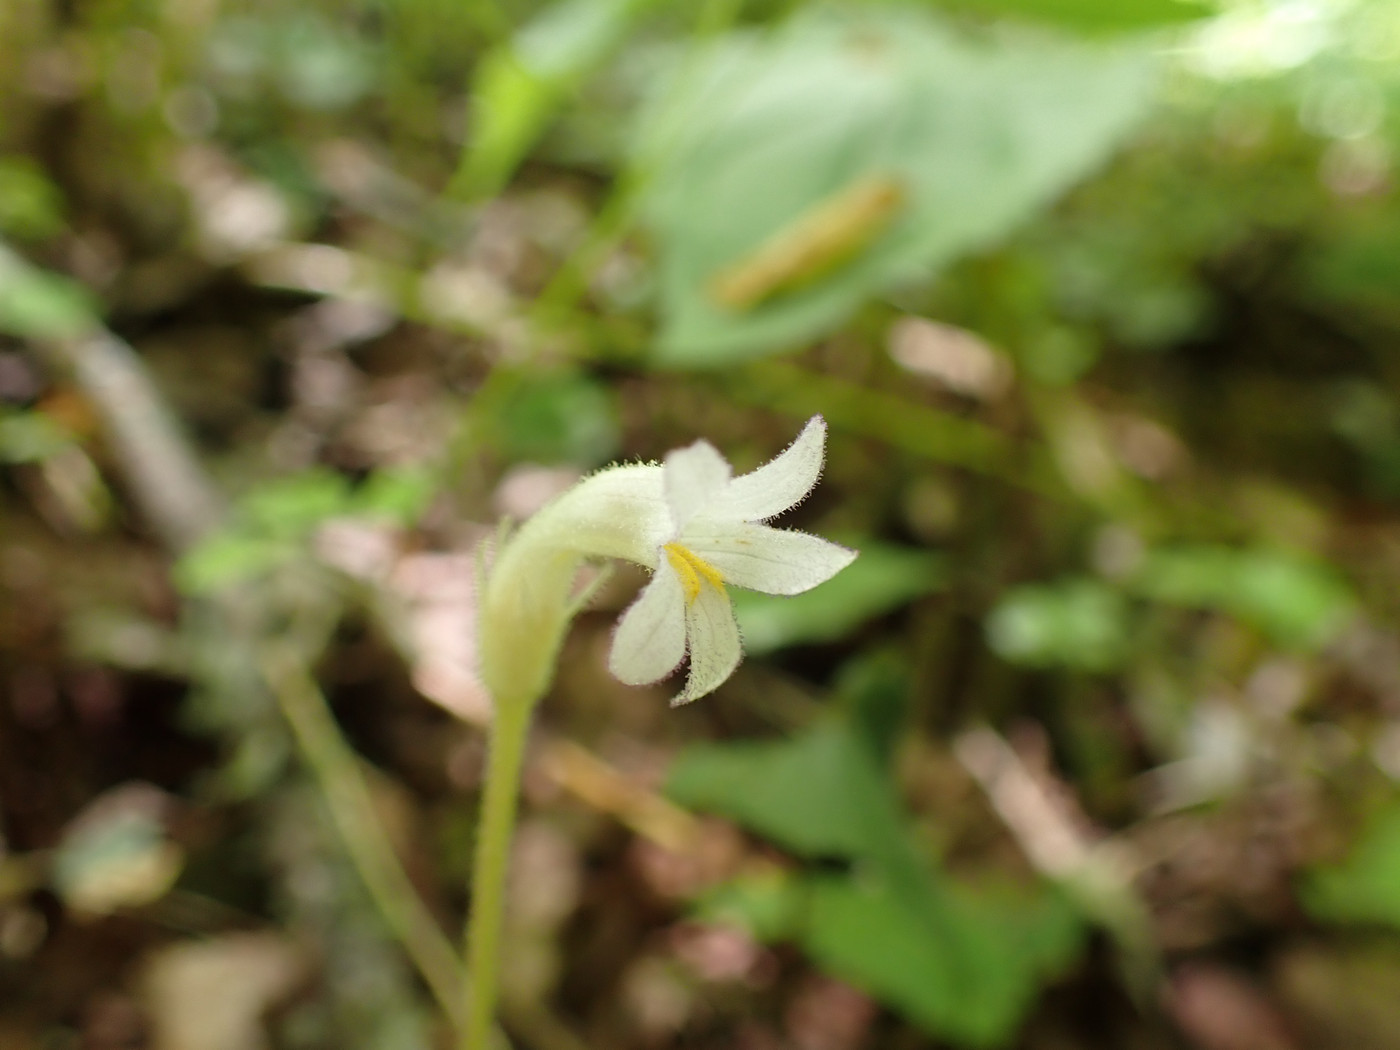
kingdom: Plantae
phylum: Tracheophyta
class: Magnoliopsida
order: Lamiales
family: Orobanchaceae
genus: Aphyllon
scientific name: Aphyllon uniflorum
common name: One-flowered broomrape
